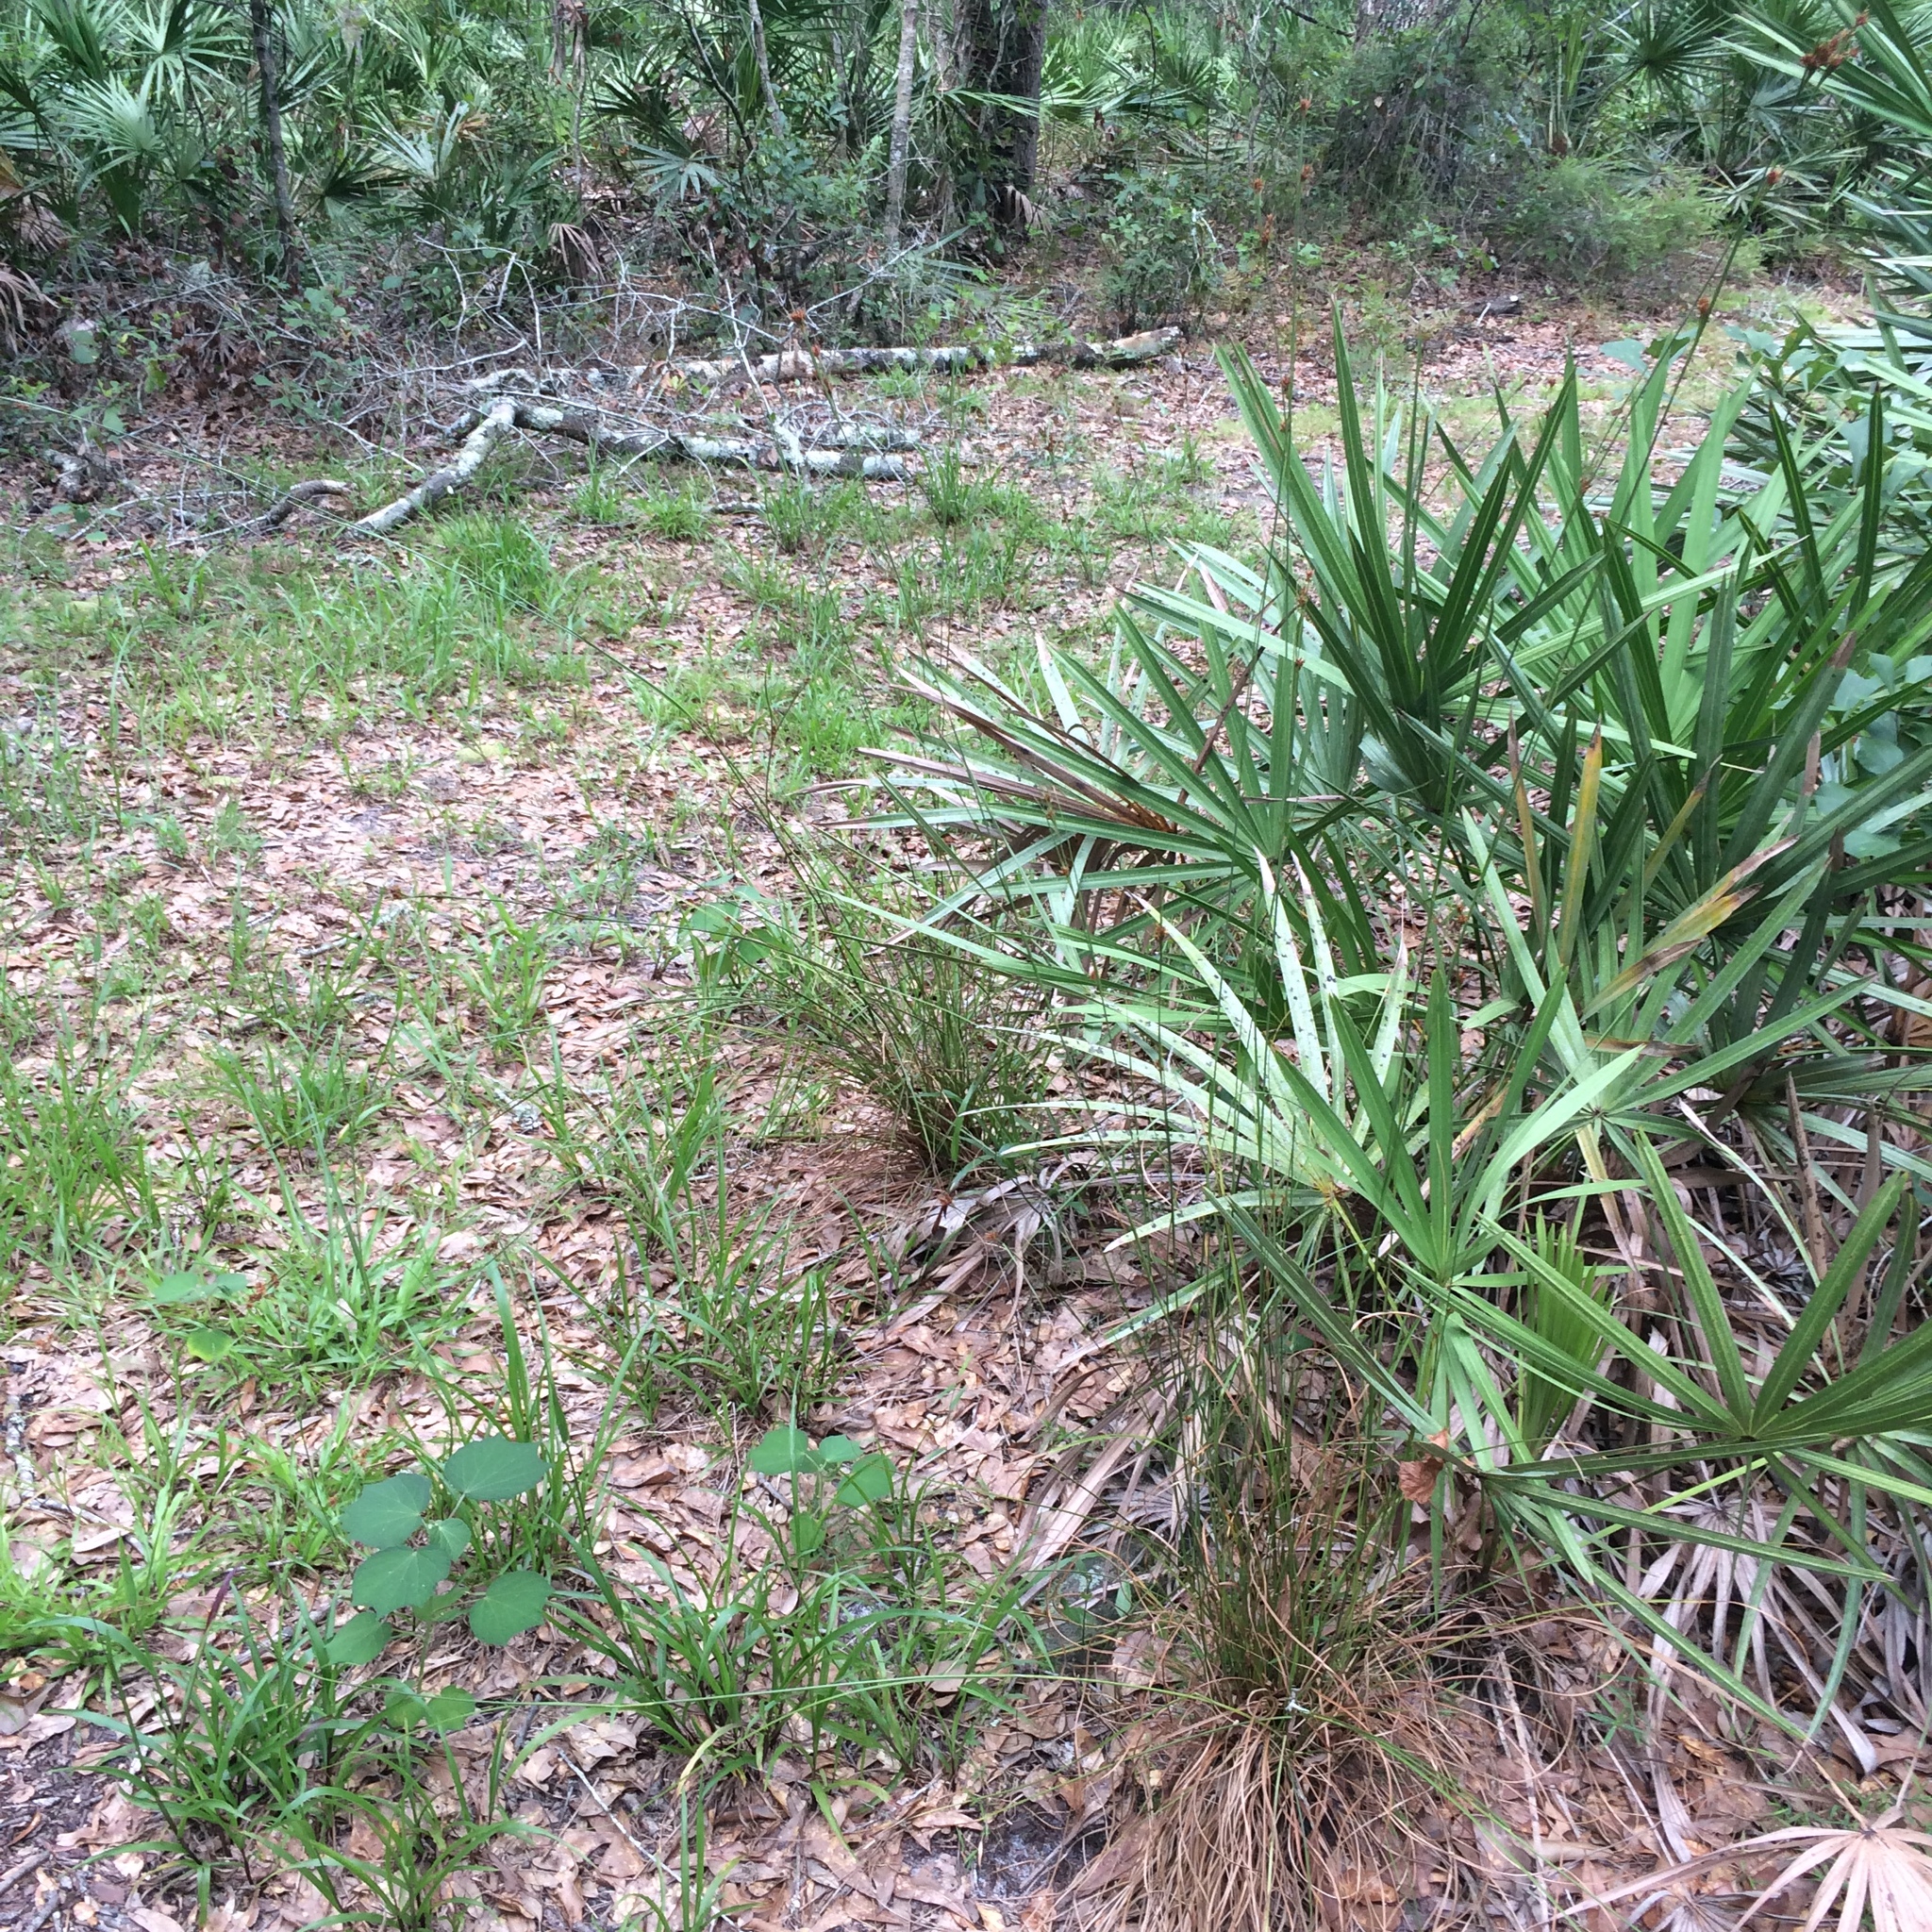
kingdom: Plantae
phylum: Tracheophyta
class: Magnoliopsida
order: Malvales
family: Malvaceae
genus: Urena
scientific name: Urena lobata
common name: Caesarweed
